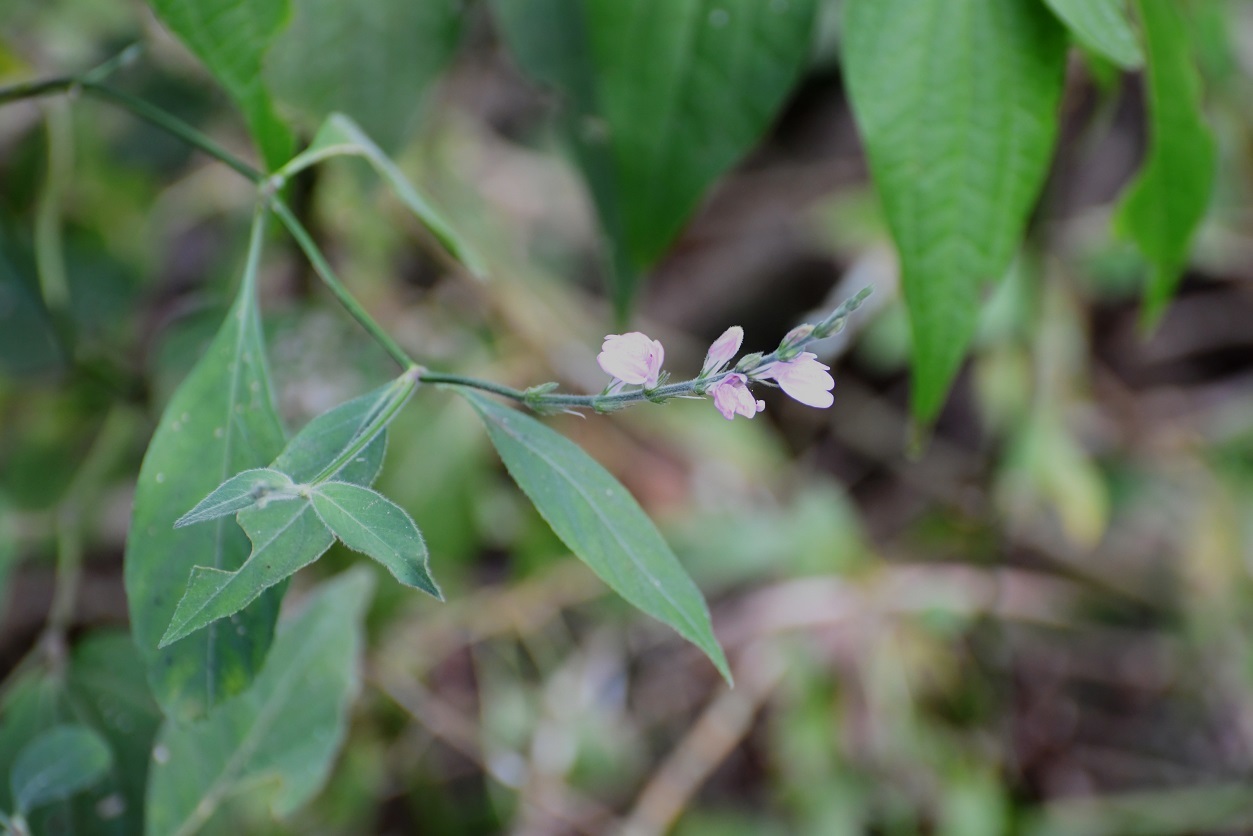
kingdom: Plantae
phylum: Tracheophyta
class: Magnoliopsida
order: Lamiales
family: Acanthaceae
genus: Dianthera
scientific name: Dianthera breviflora
